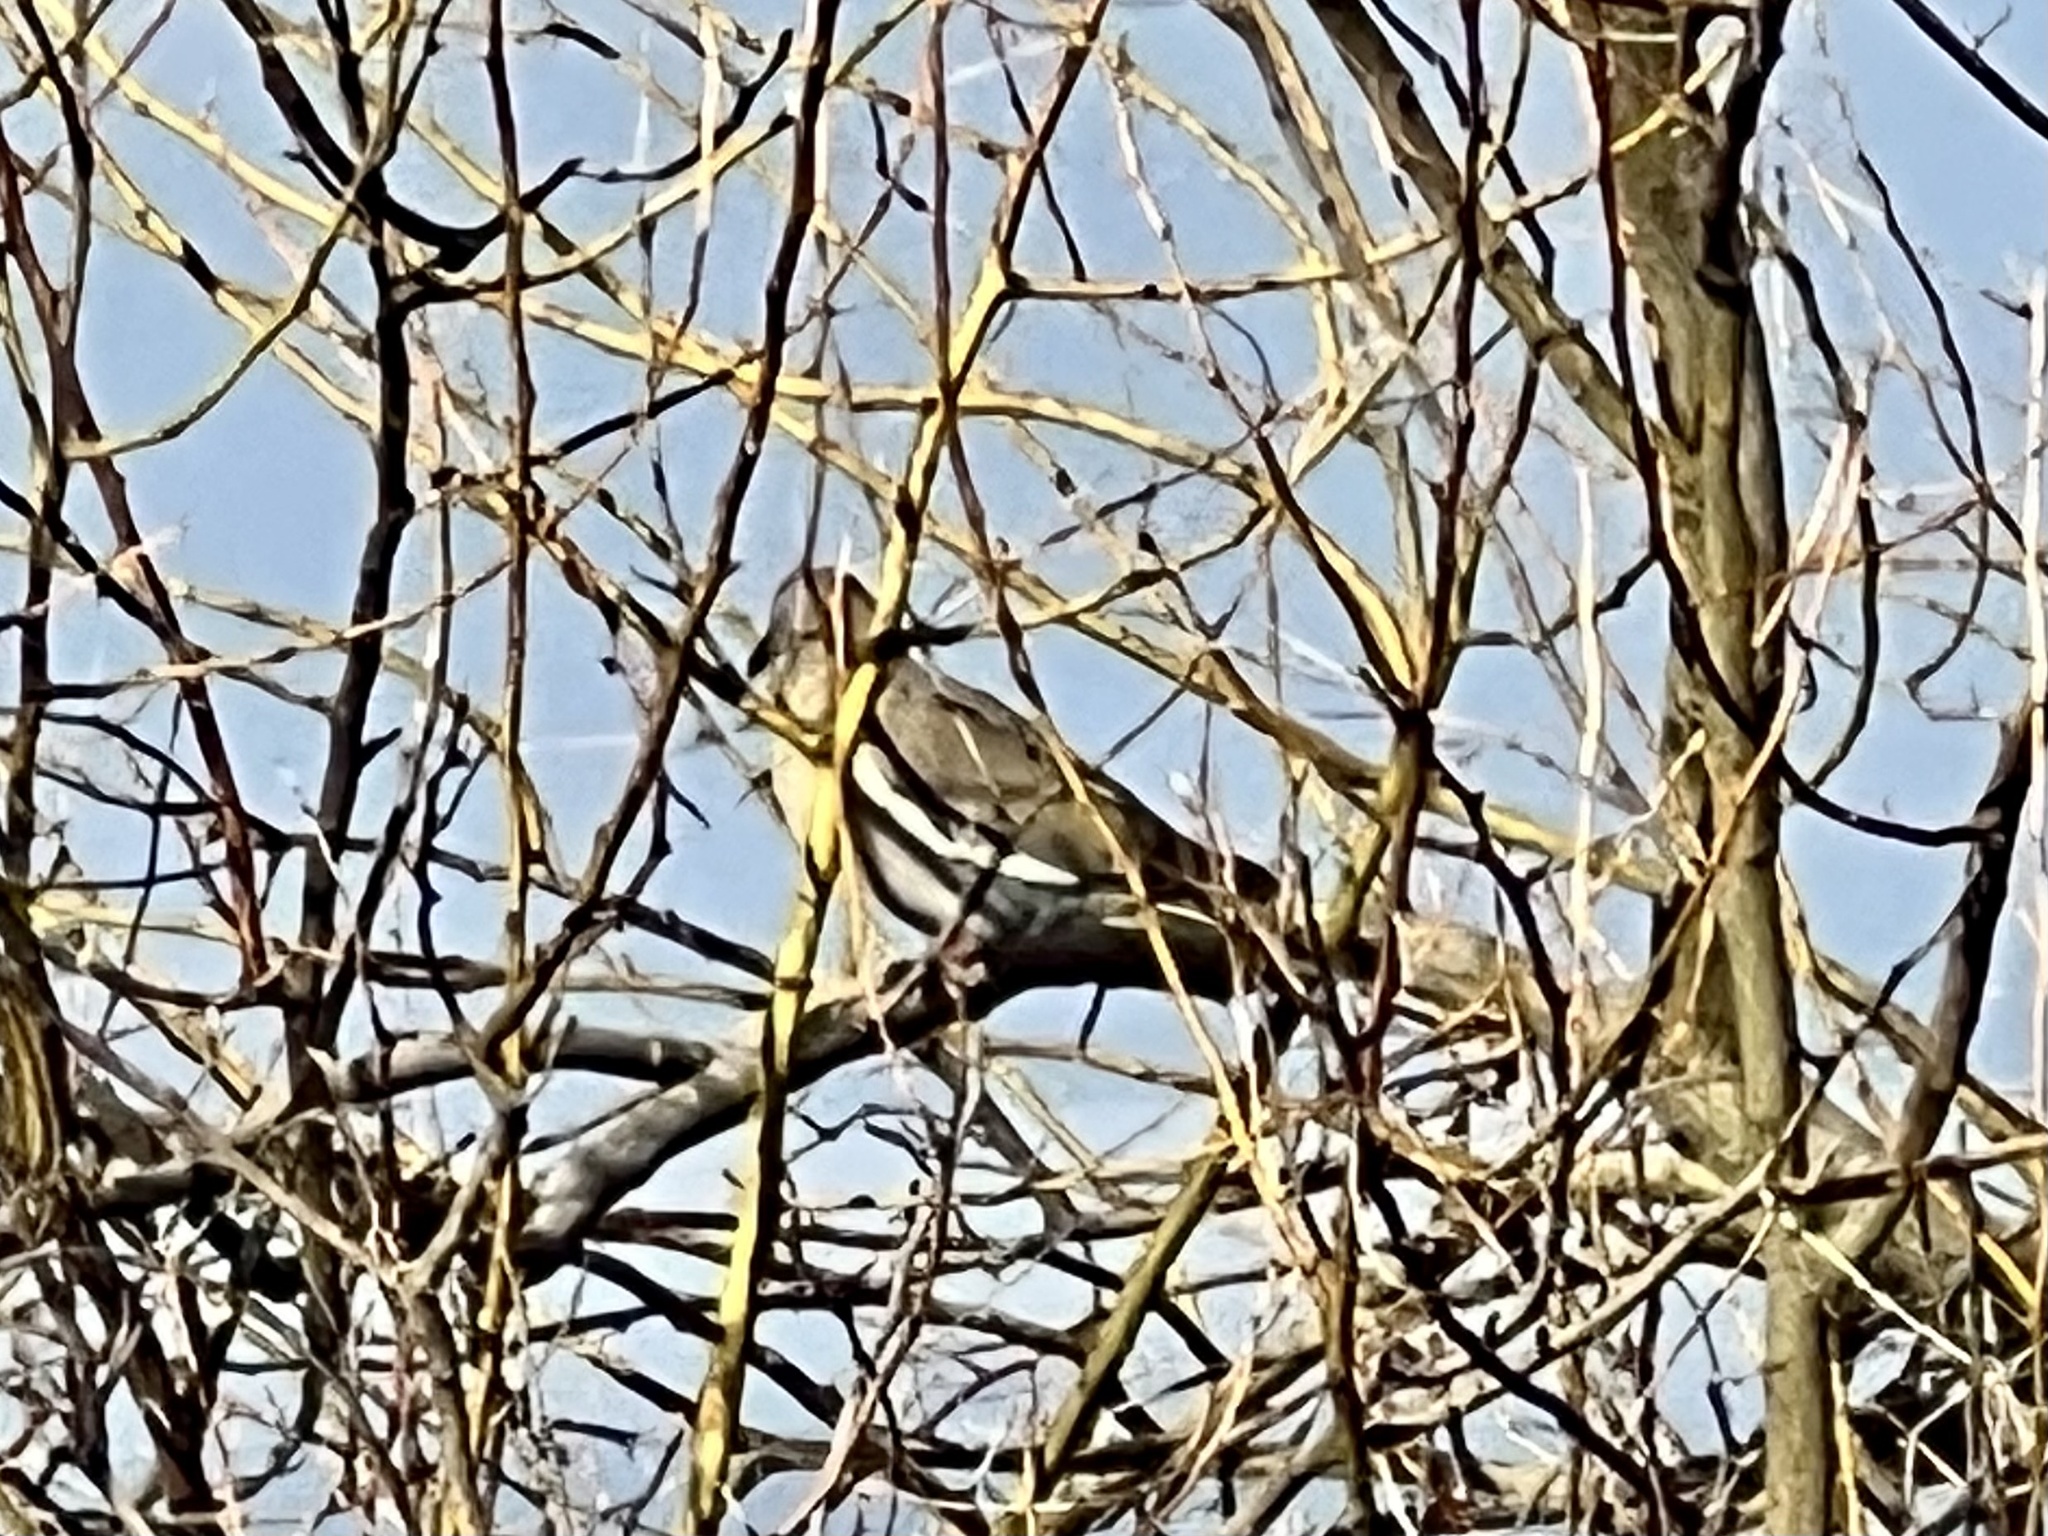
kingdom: Animalia
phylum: Chordata
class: Aves
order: Columbiformes
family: Columbidae
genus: Zenaida
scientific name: Zenaida asiatica
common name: White-winged dove
